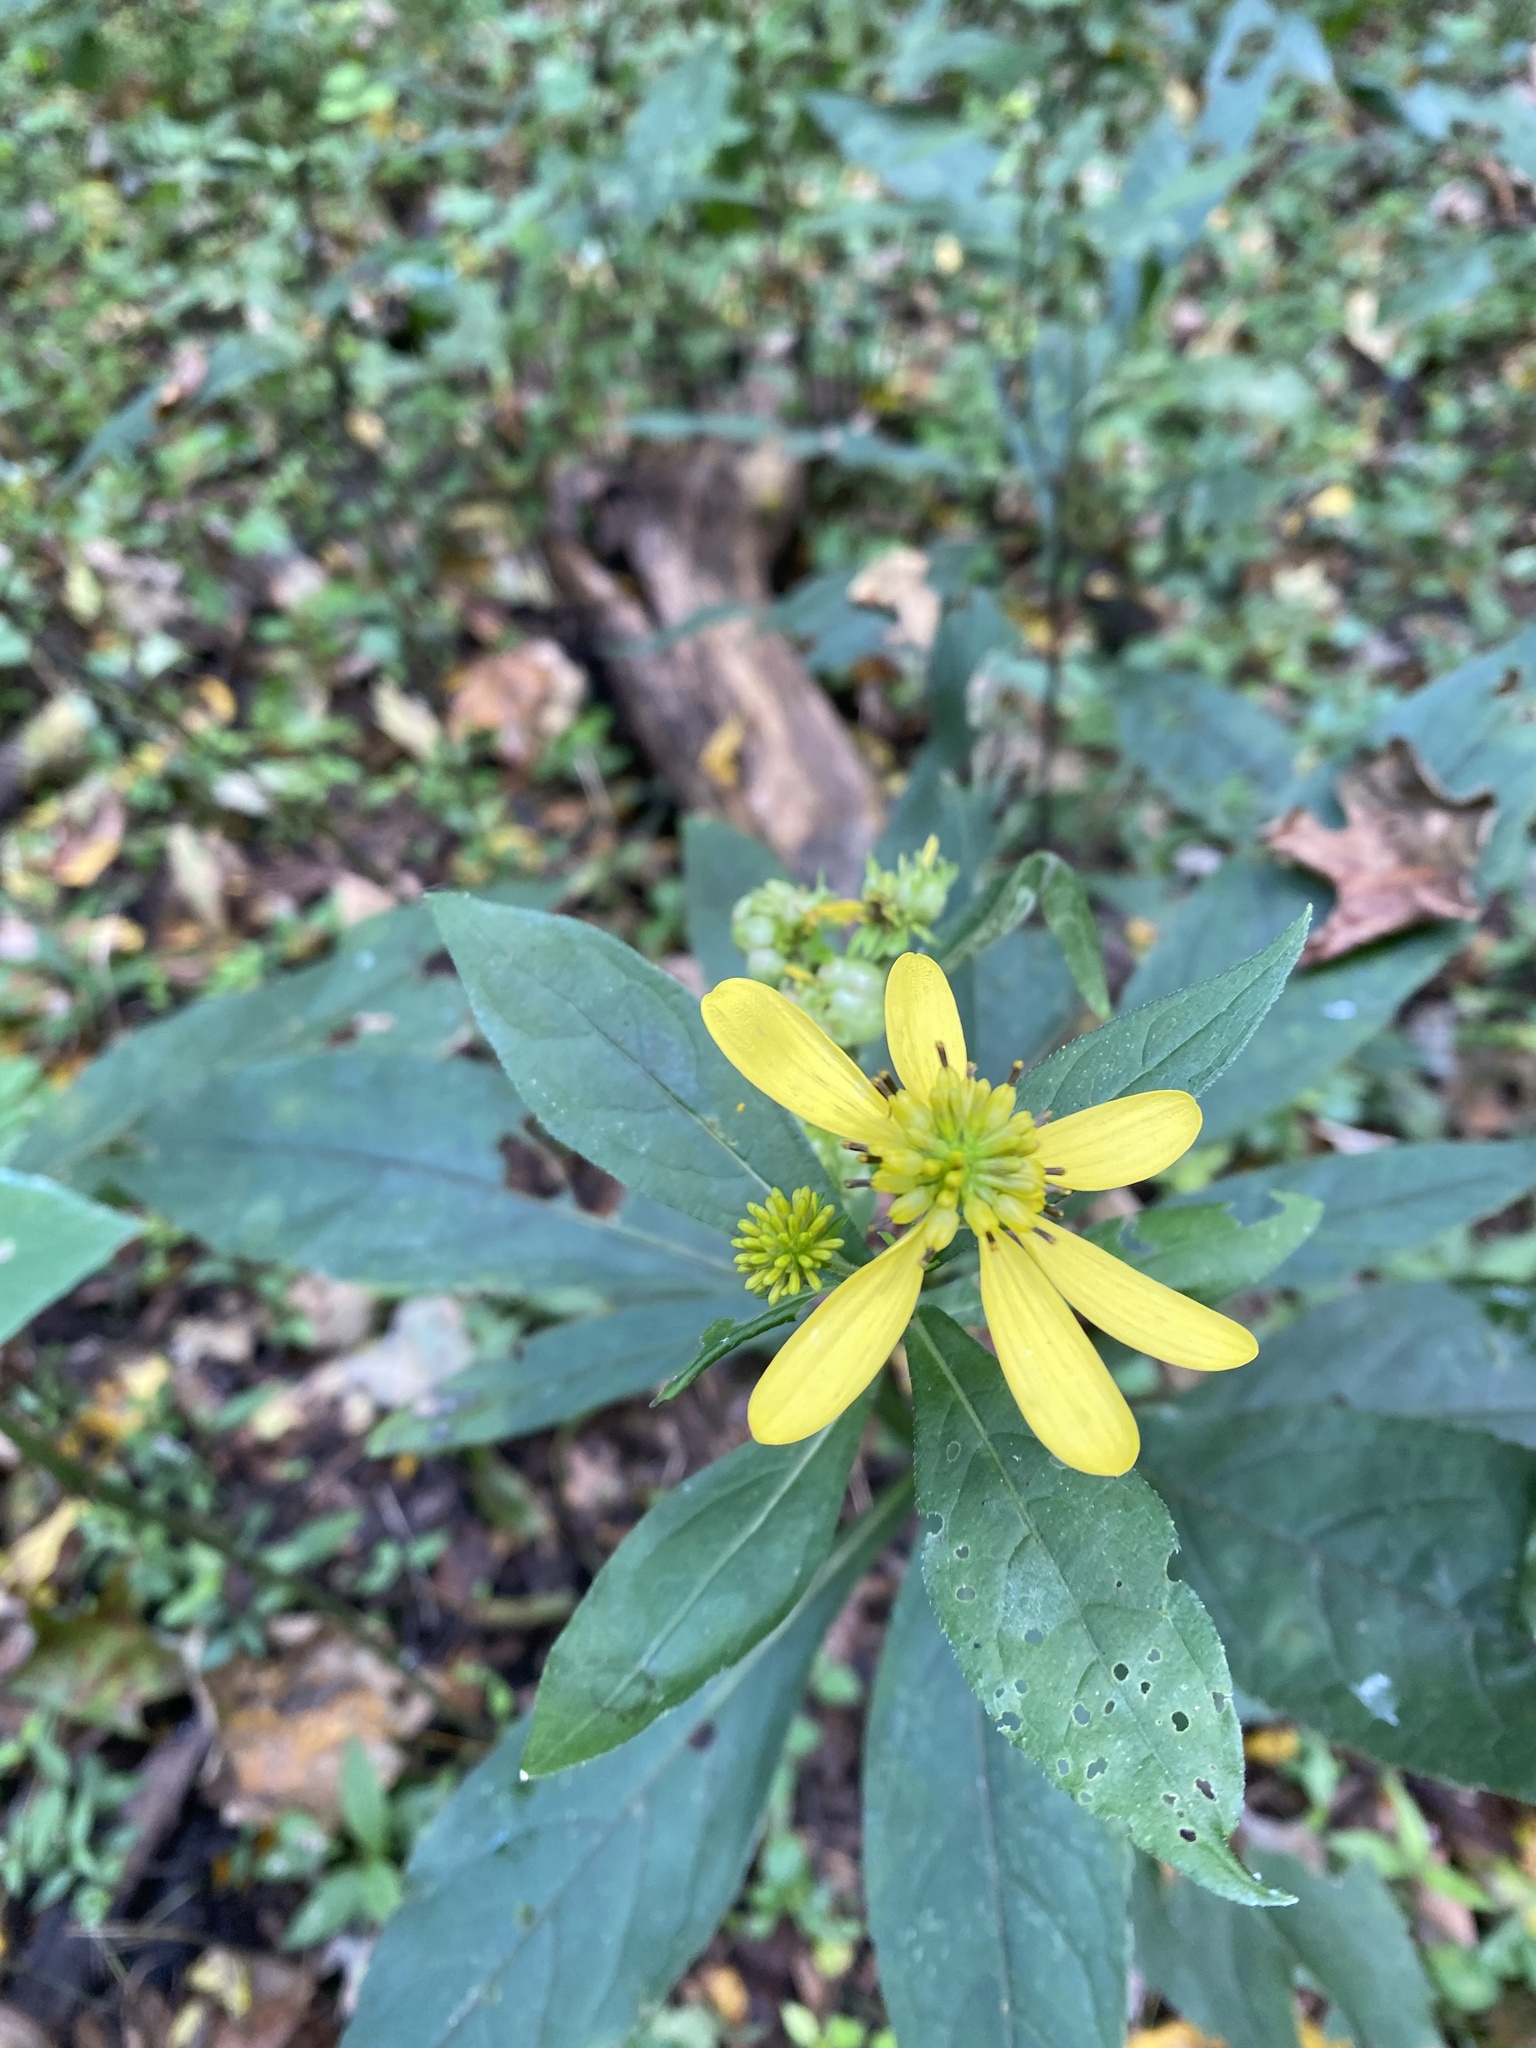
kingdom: Plantae
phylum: Tracheophyta
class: Magnoliopsida
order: Asterales
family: Asteraceae
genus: Verbesina
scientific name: Verbesina alternifolia
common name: Wingstem
